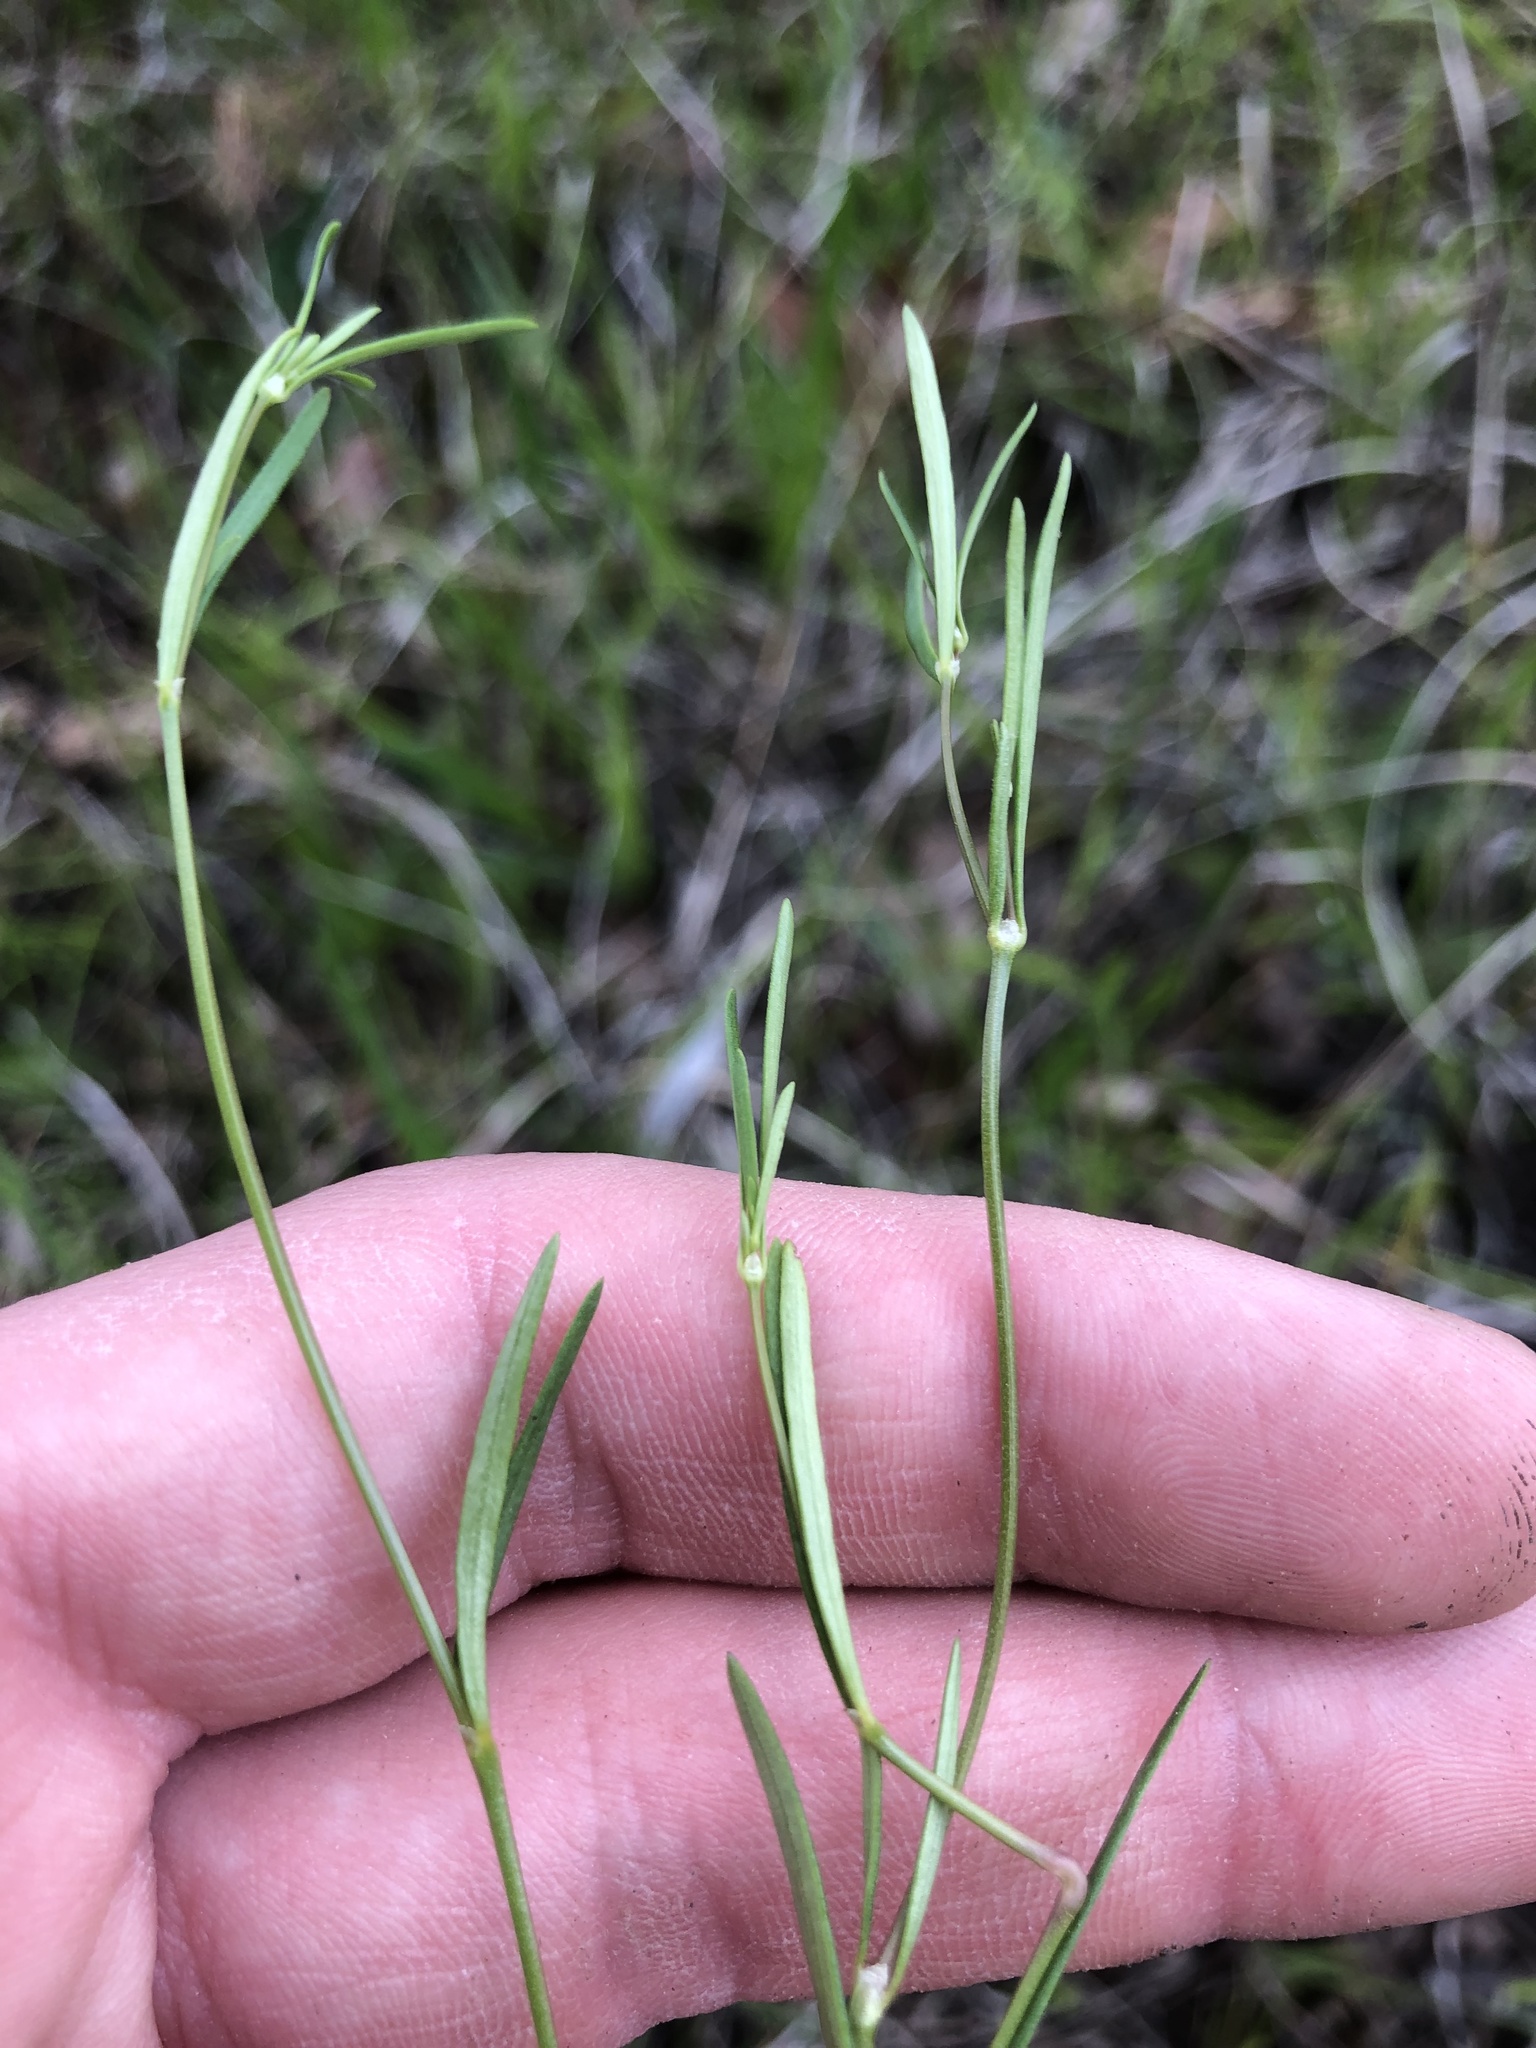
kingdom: Plantae
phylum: Tracheophyta
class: Magnoliopsida
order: Gentianales
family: Rubiaceae
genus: Houstonia
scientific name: Houstonia longifolia
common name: Long-leaved bluets
